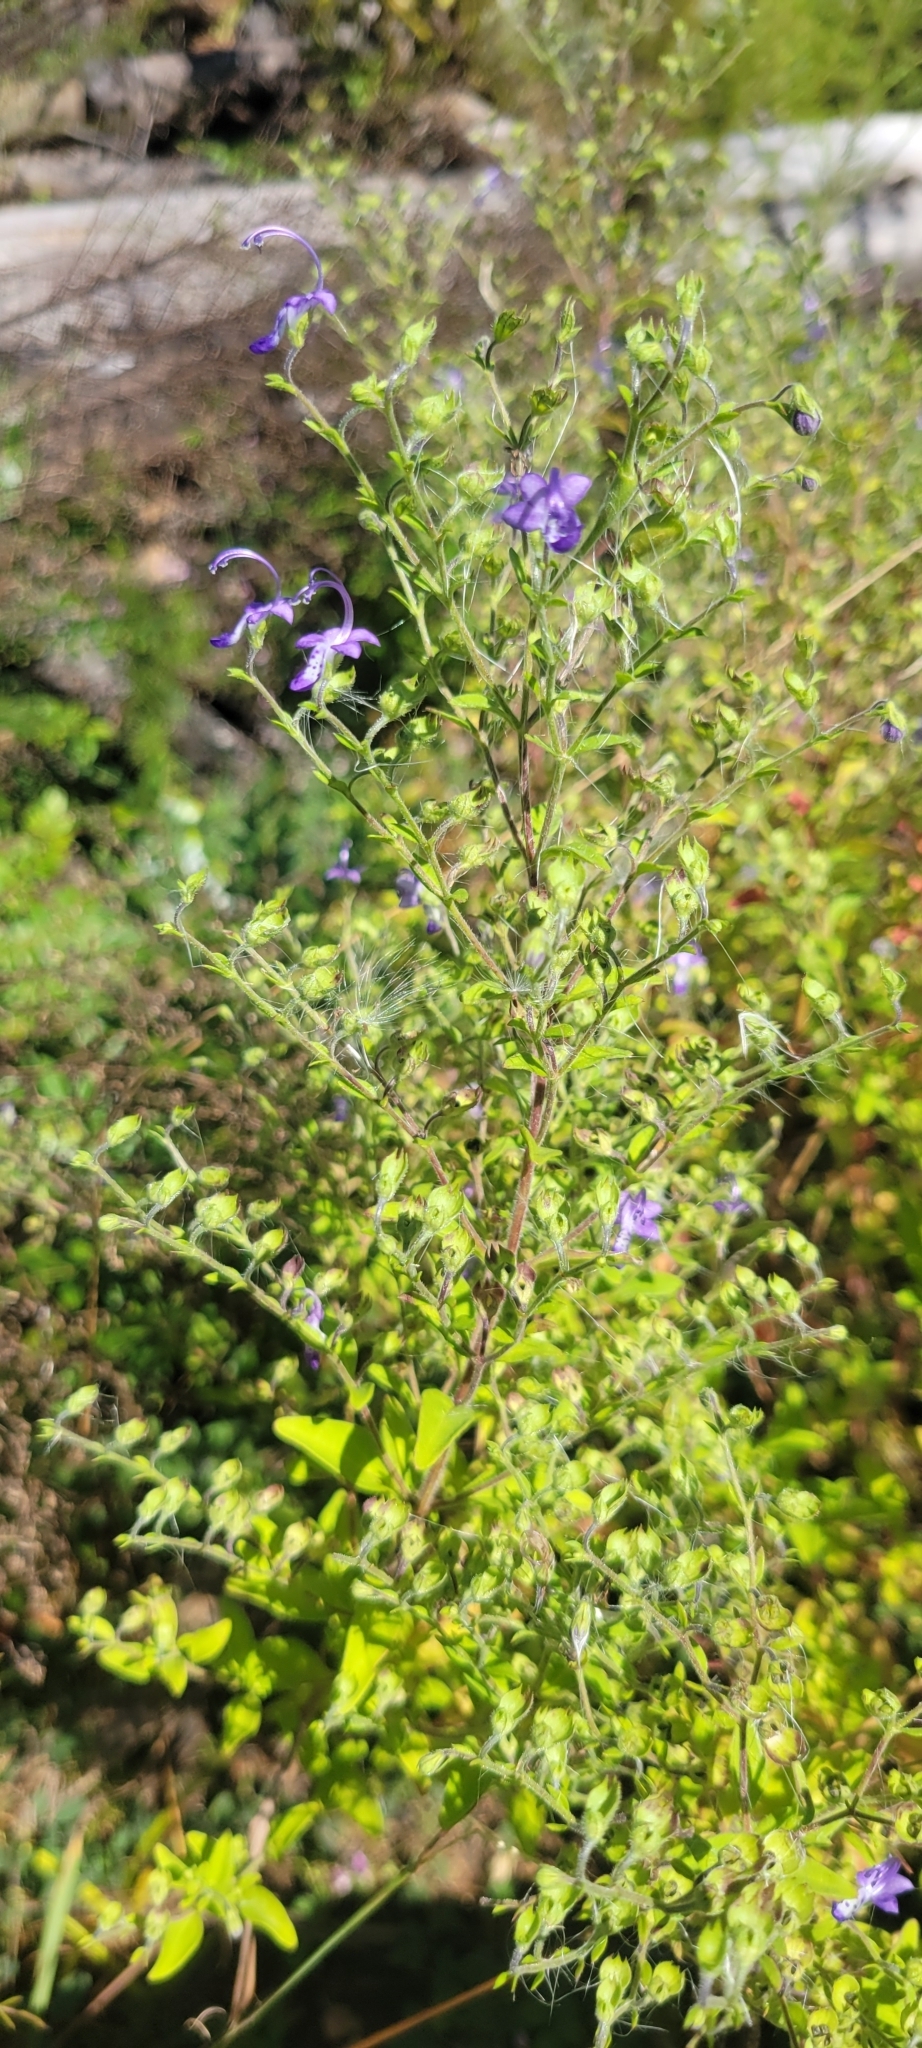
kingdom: Plantae
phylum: Tracheophyta
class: Magnoliopsida
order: Lamiales
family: Lamiaceae
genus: Trichostema
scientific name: Trichostema dichotomum
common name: Bastard pennyroyal
